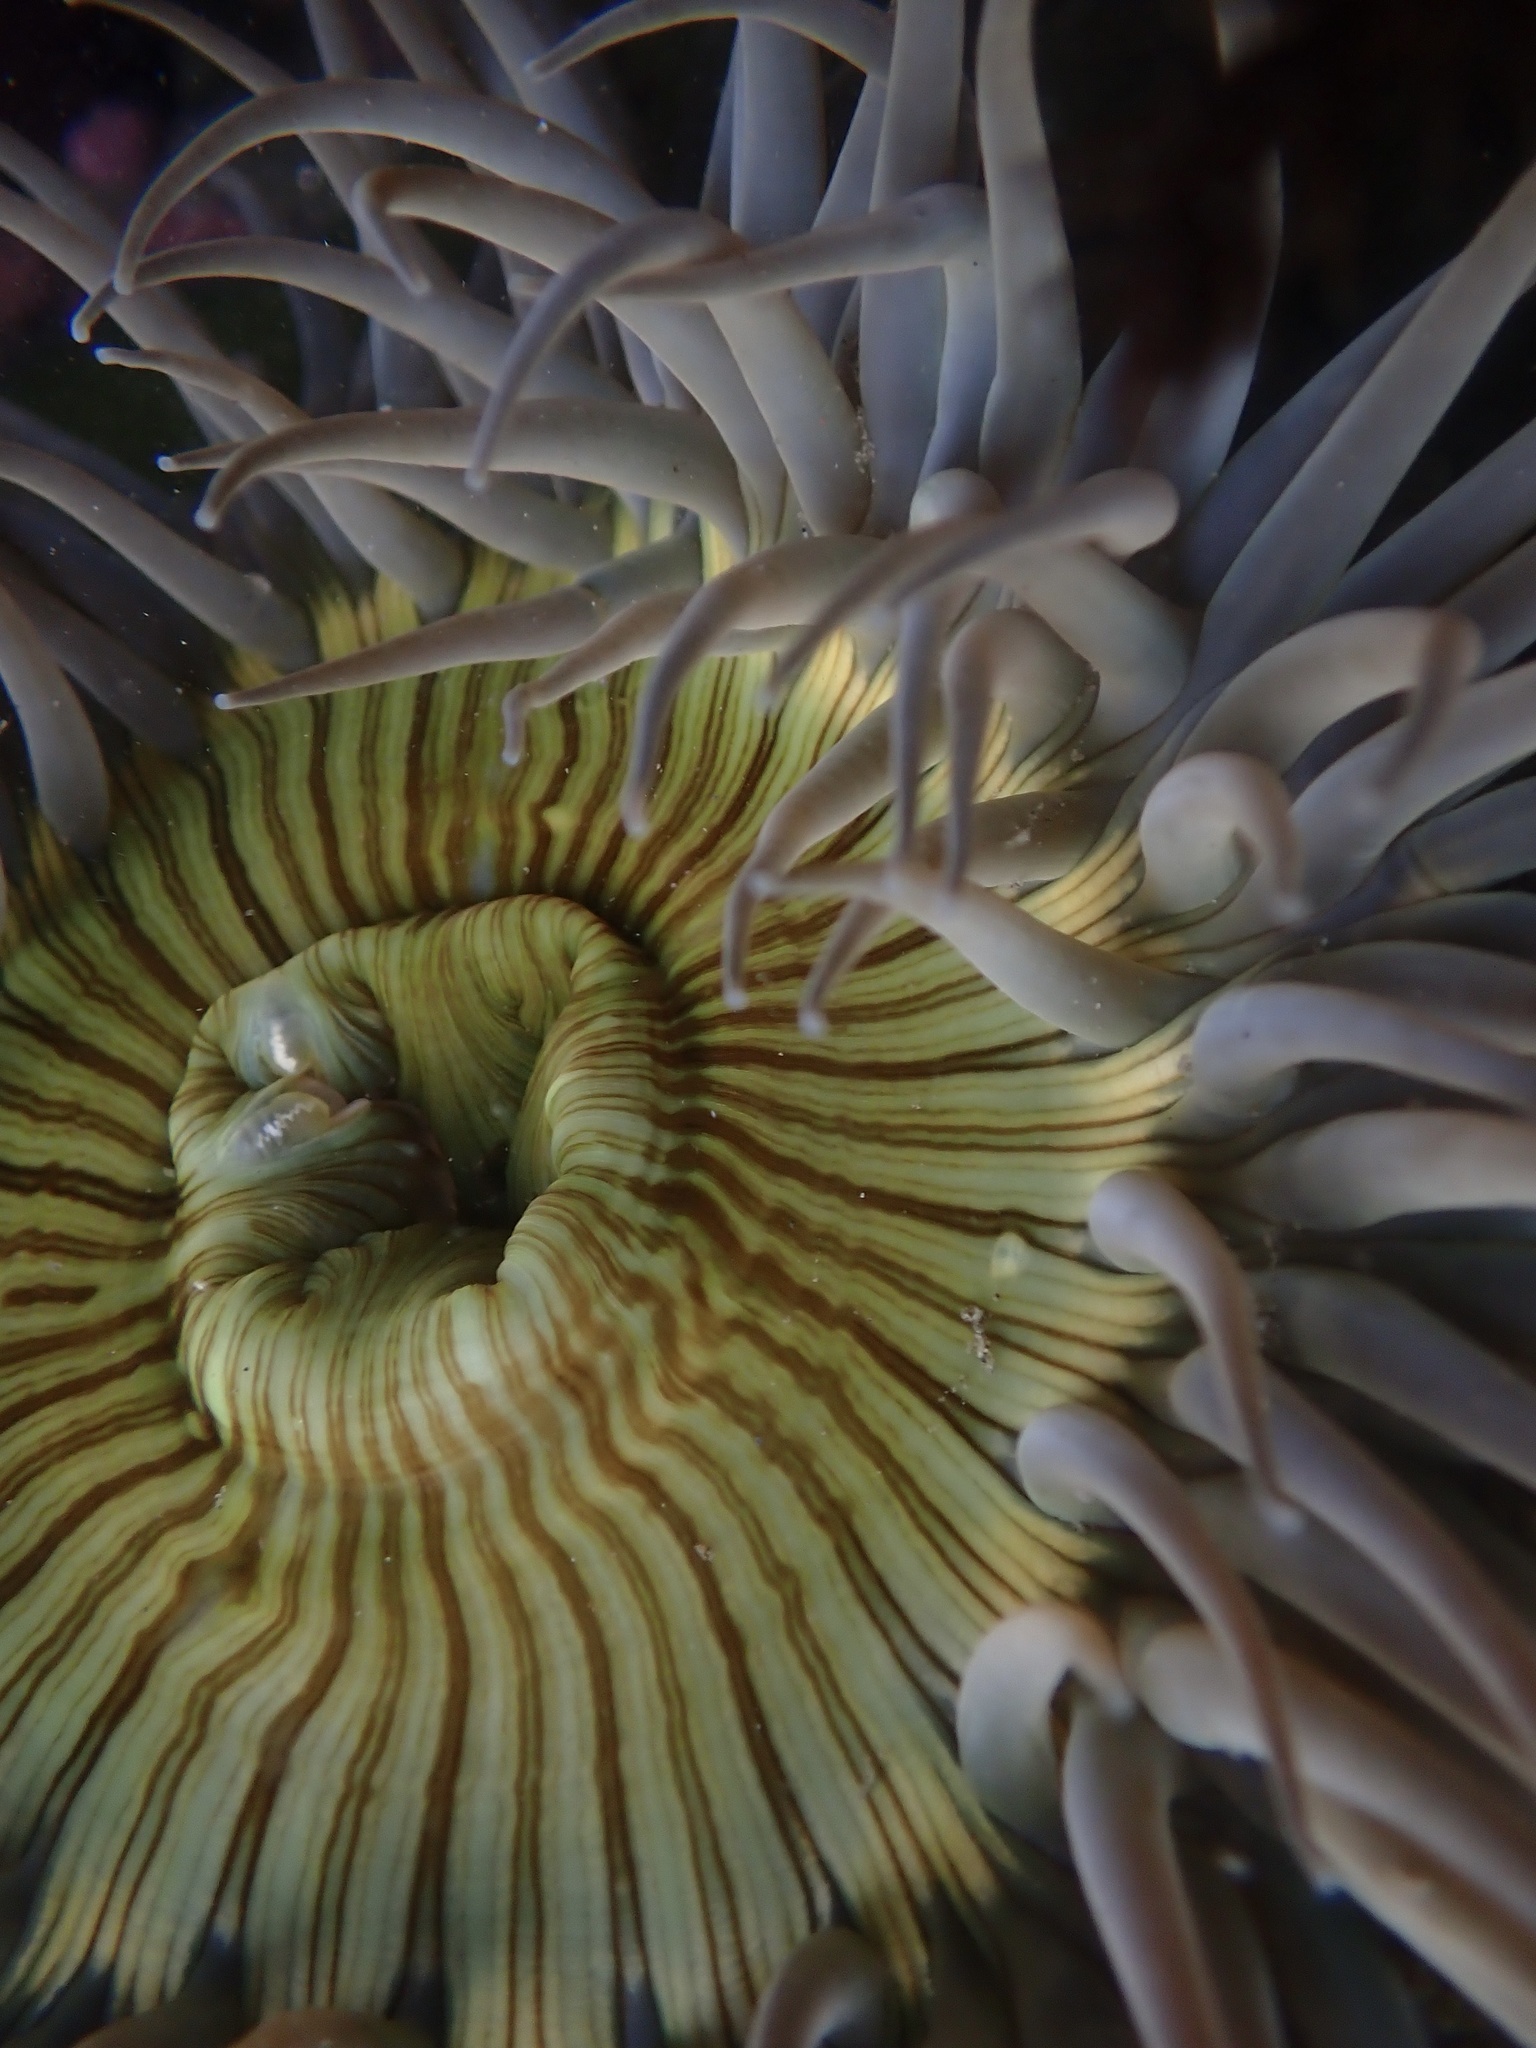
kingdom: Animalia
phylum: Cnidaria
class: Anthozoa
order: Actiniaria
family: Actiniidae
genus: Anthopleura
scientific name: Anthopleura sola
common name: Sun anemone
